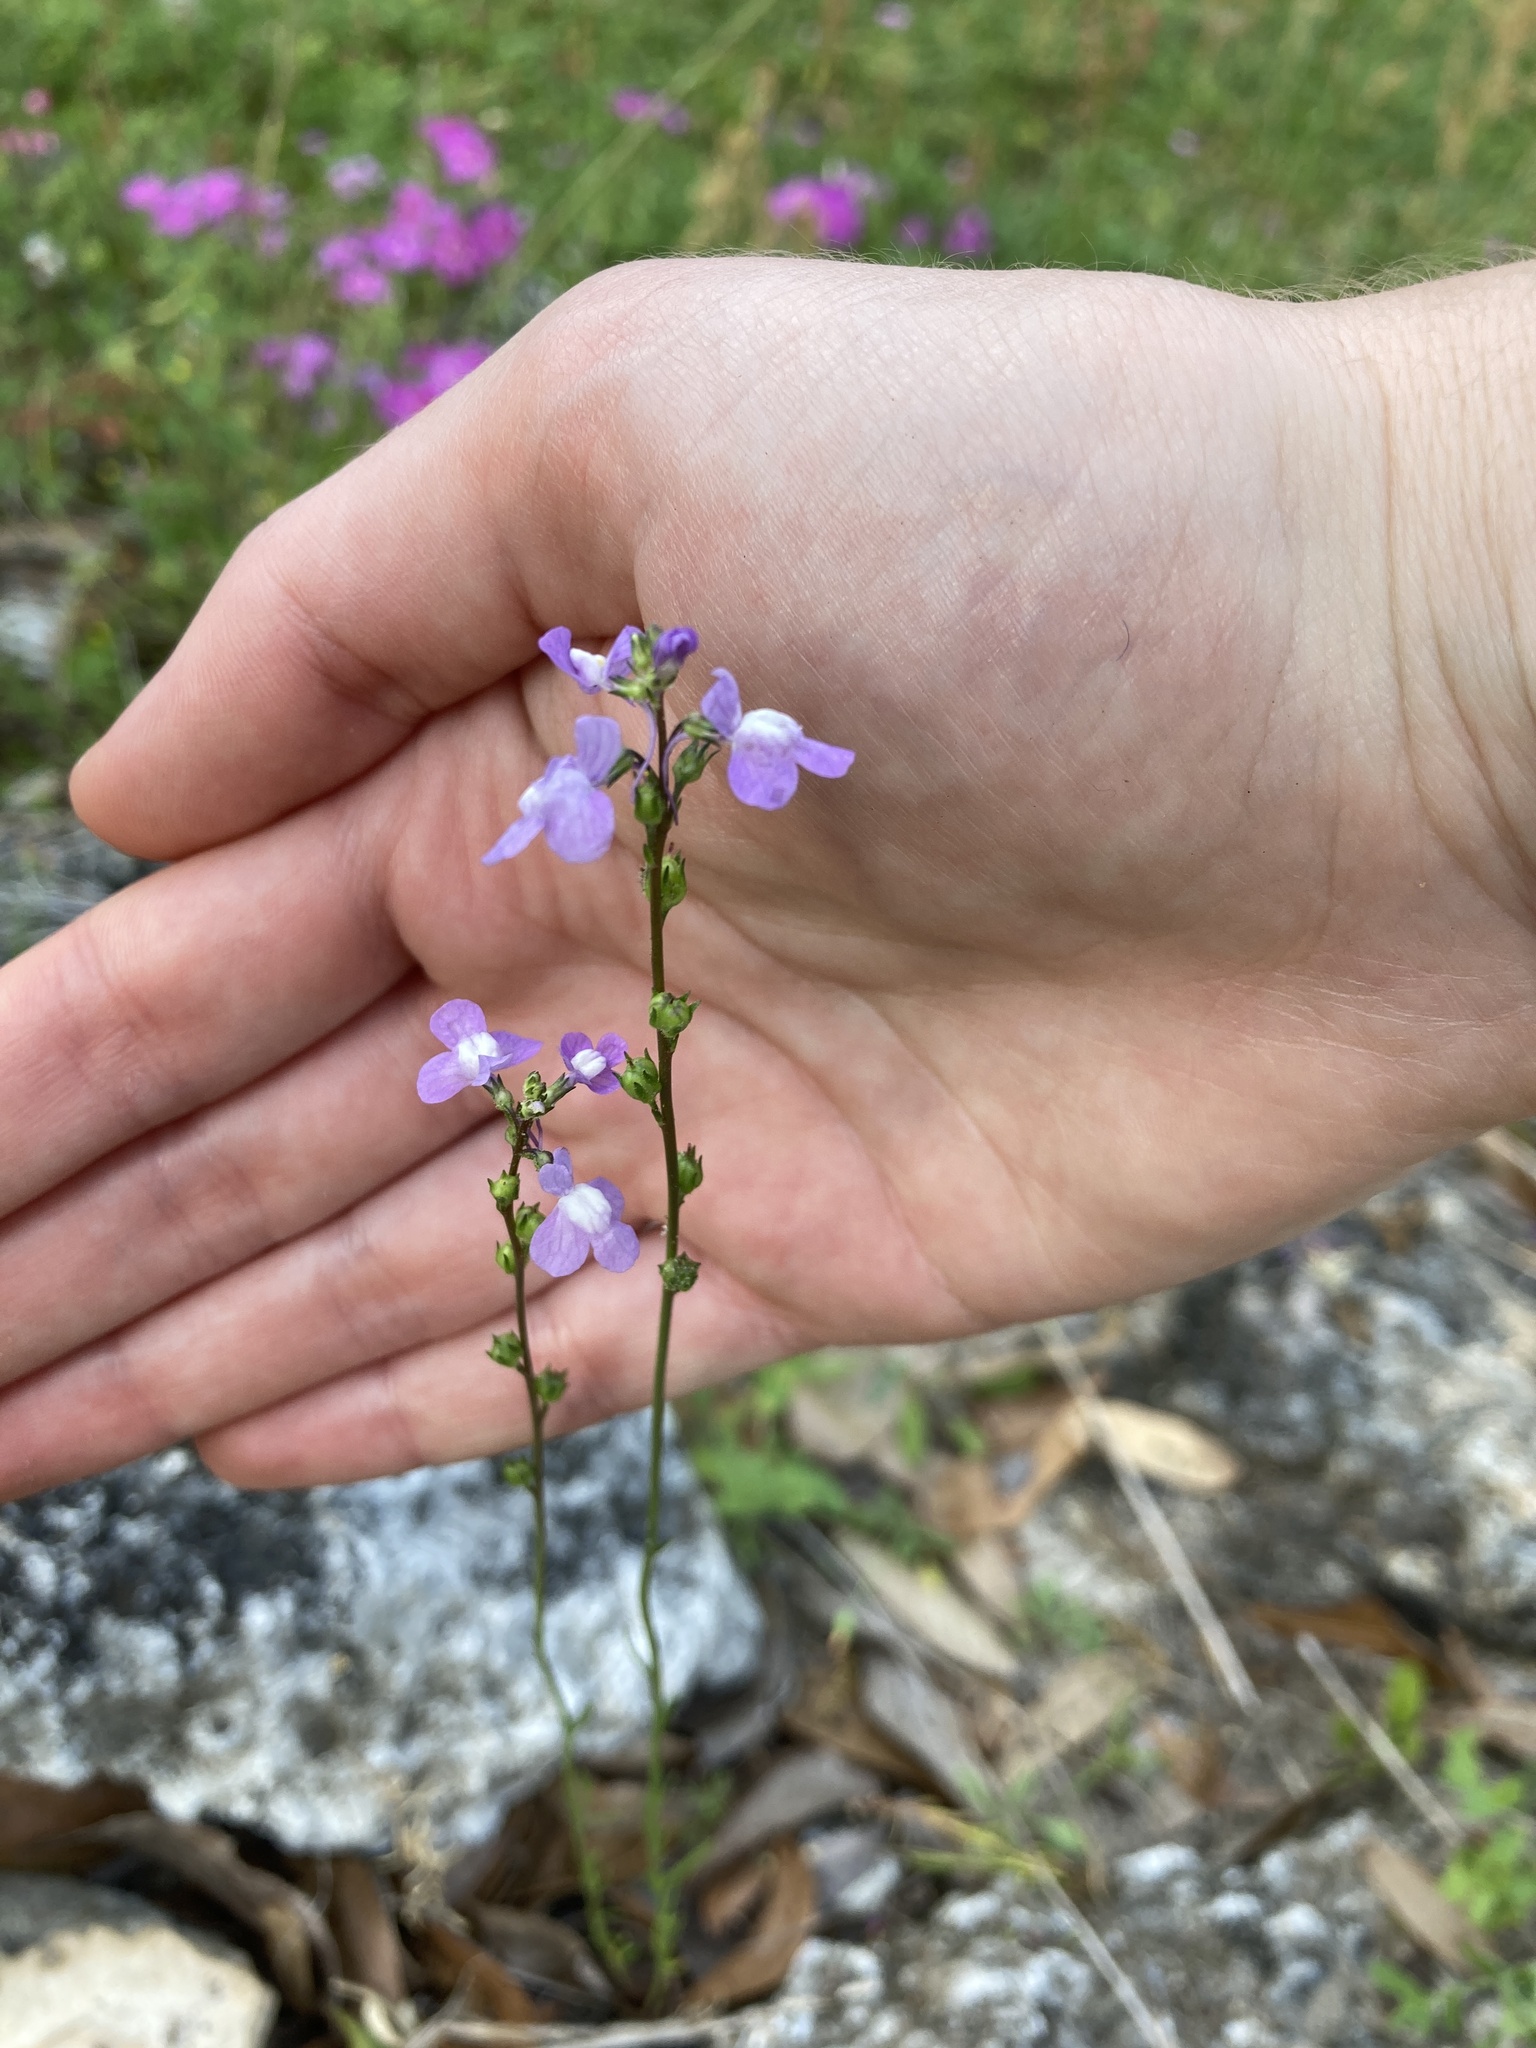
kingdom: Plantae
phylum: Tracheophyta
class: Magnoliopsida
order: Lamiales
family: Plantaginaceae
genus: Nuttallanthus
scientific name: Nuttallanthus canadensis
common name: Blue toadflax
